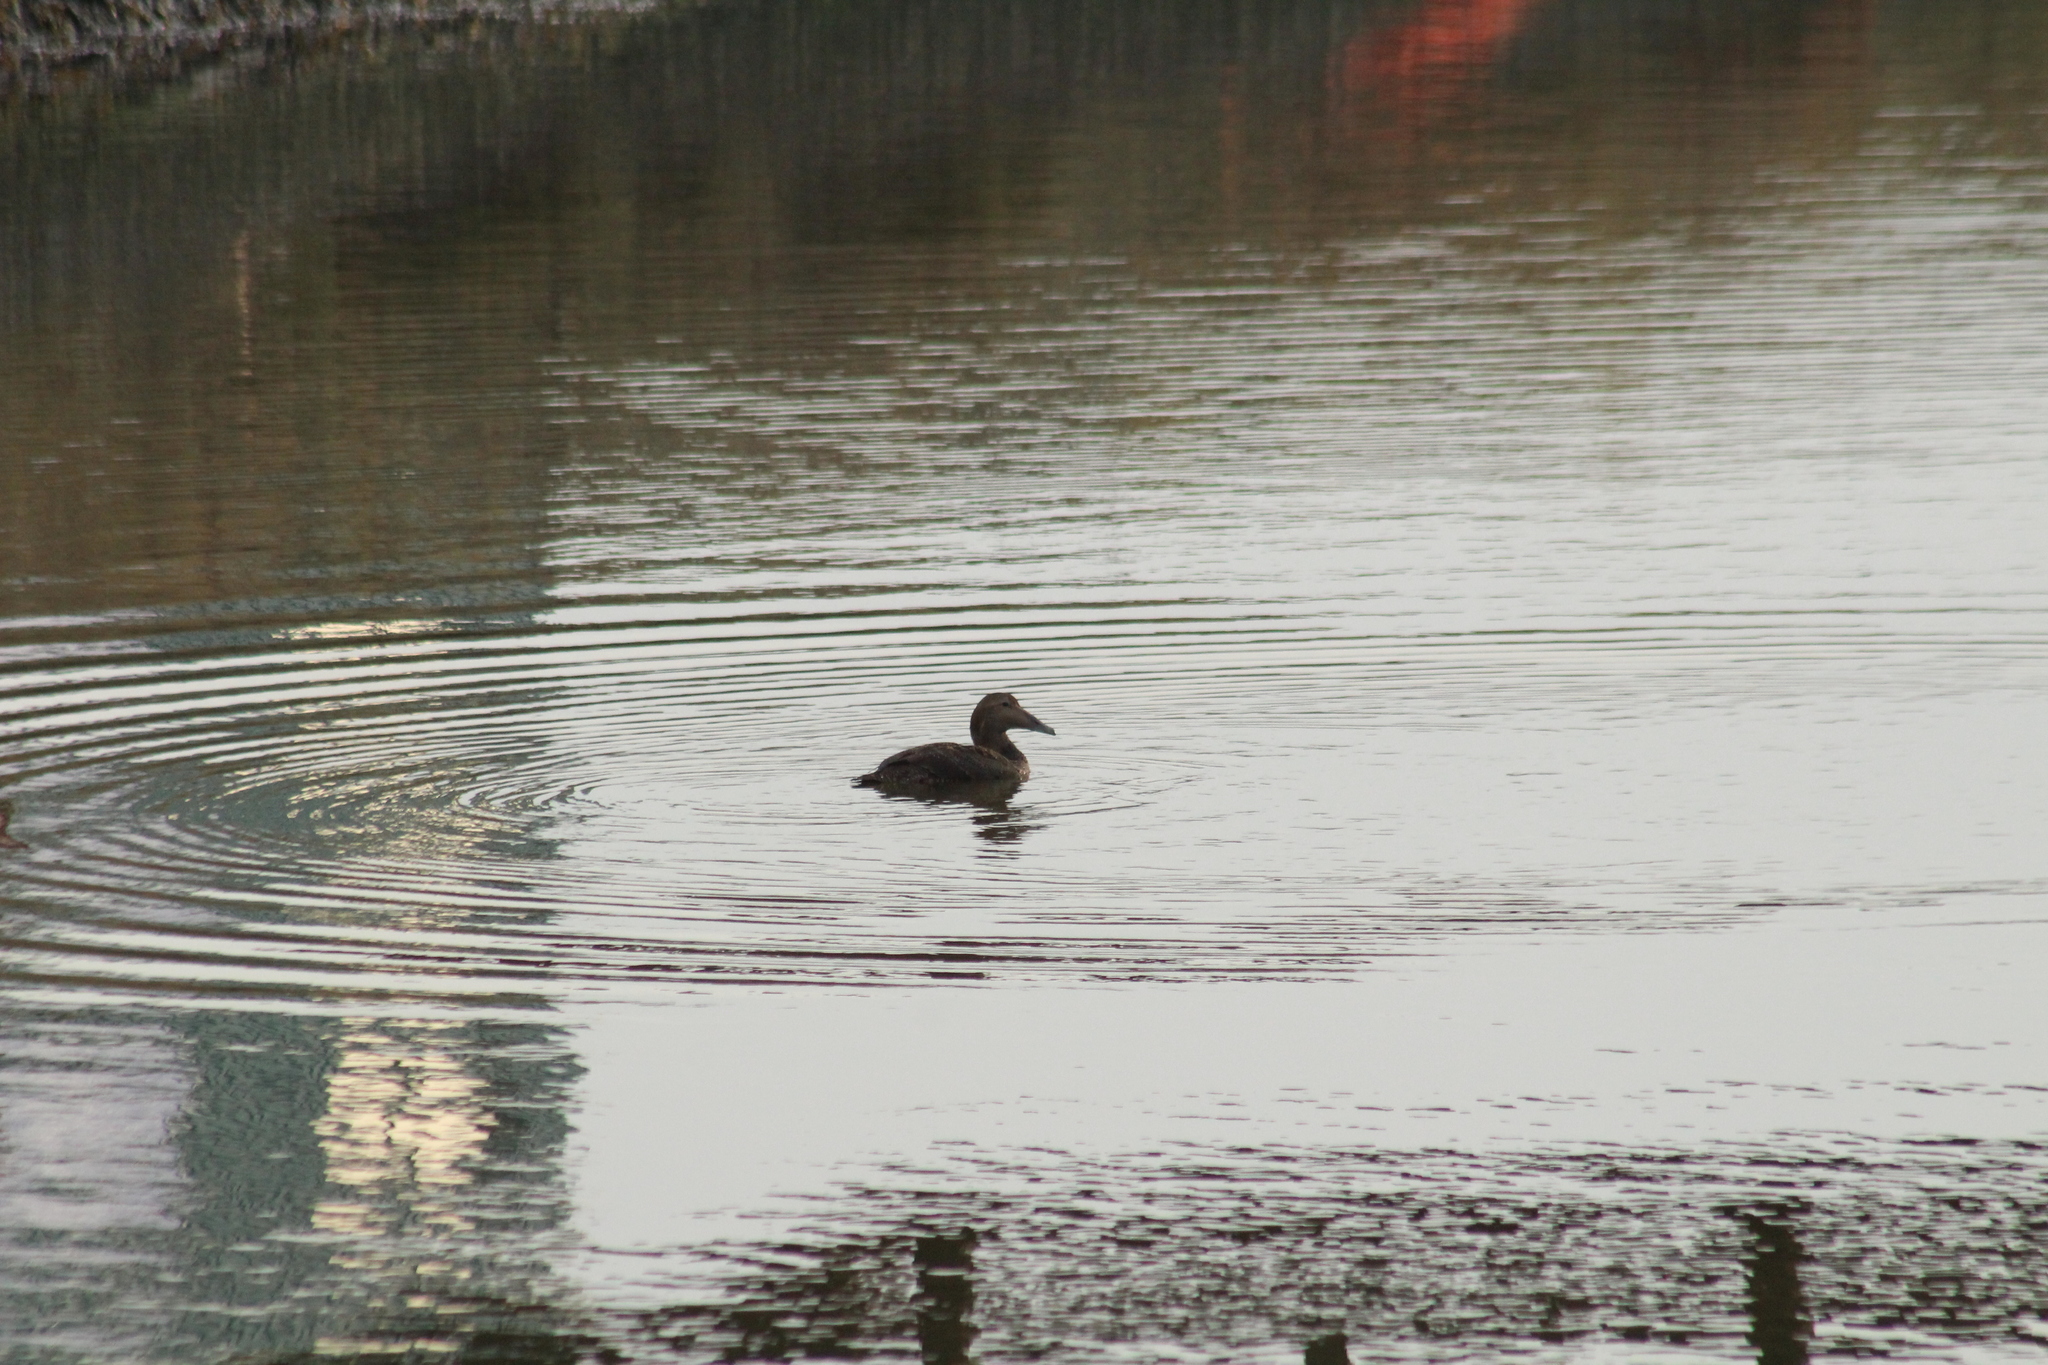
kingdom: Animalia
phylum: Chordata
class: Aves
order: Anseriformes
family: Anatidae
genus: Somateria
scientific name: Somateria mollissima
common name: Common eider
